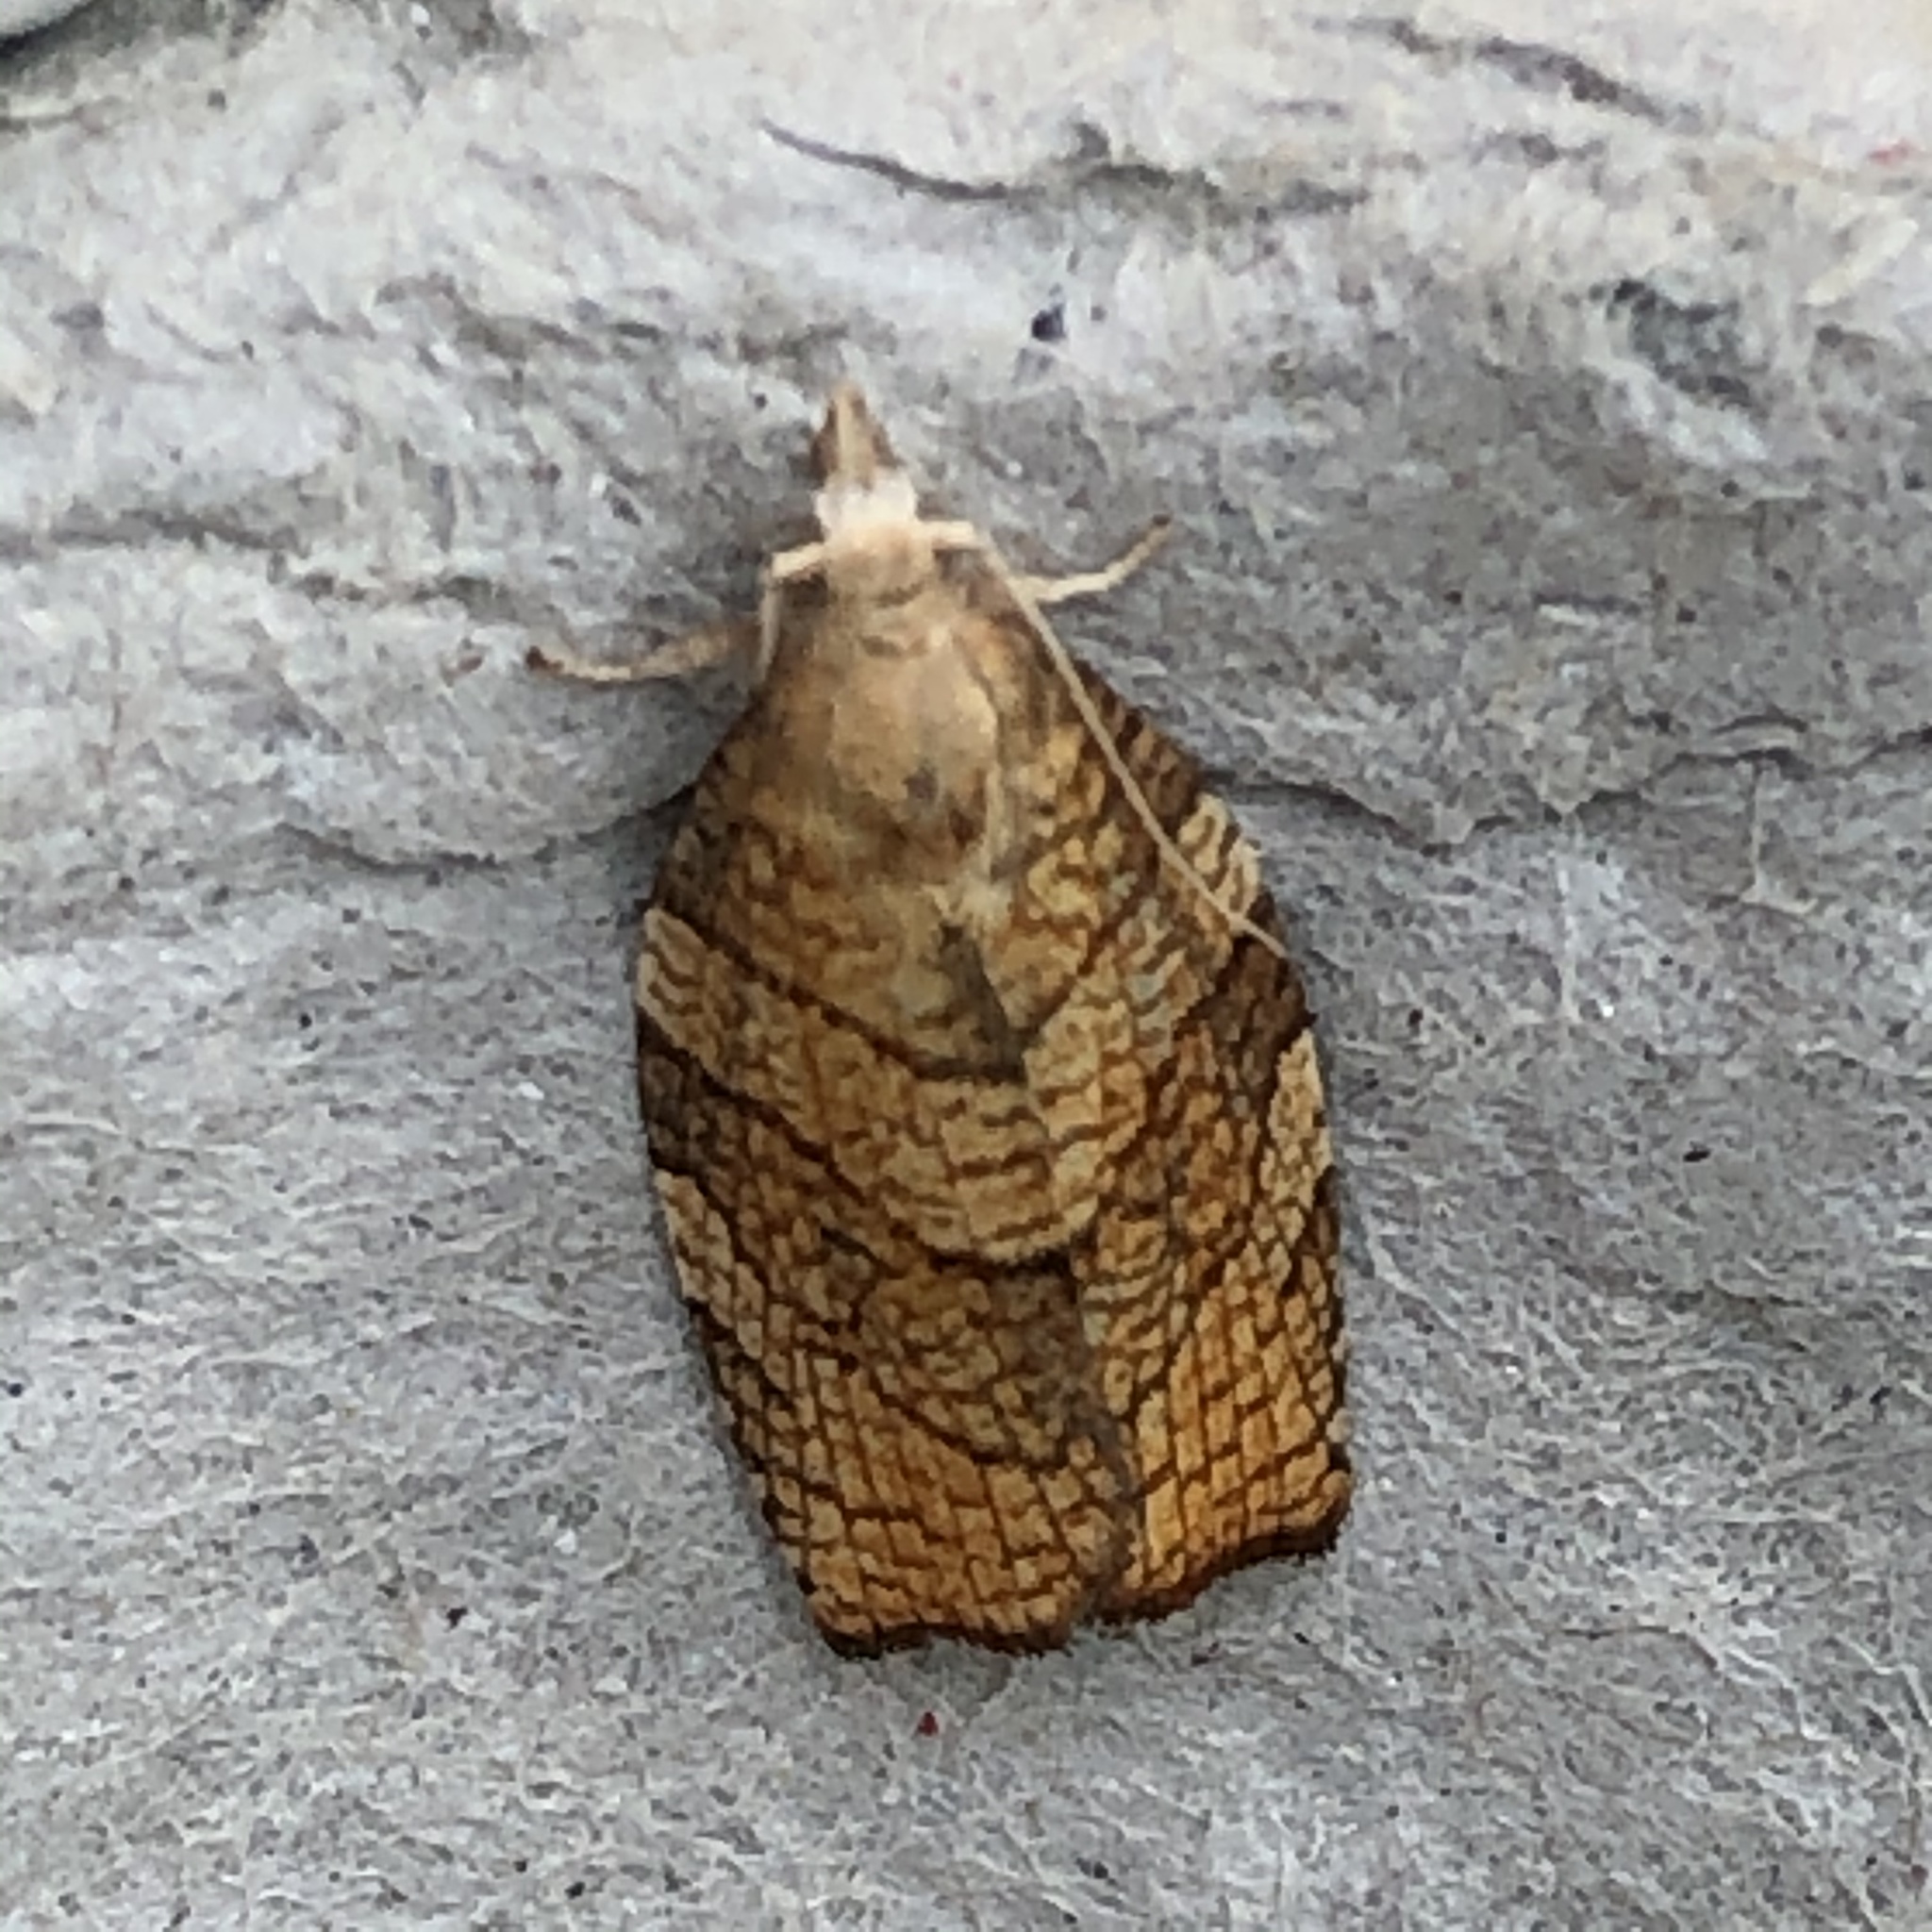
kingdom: Animalia
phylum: Arthropoda
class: Insecta
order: Lepidoptera
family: Tortricidae
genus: Pandemis
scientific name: Pandemis corylana
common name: Chequered fruit-tree tortrix
